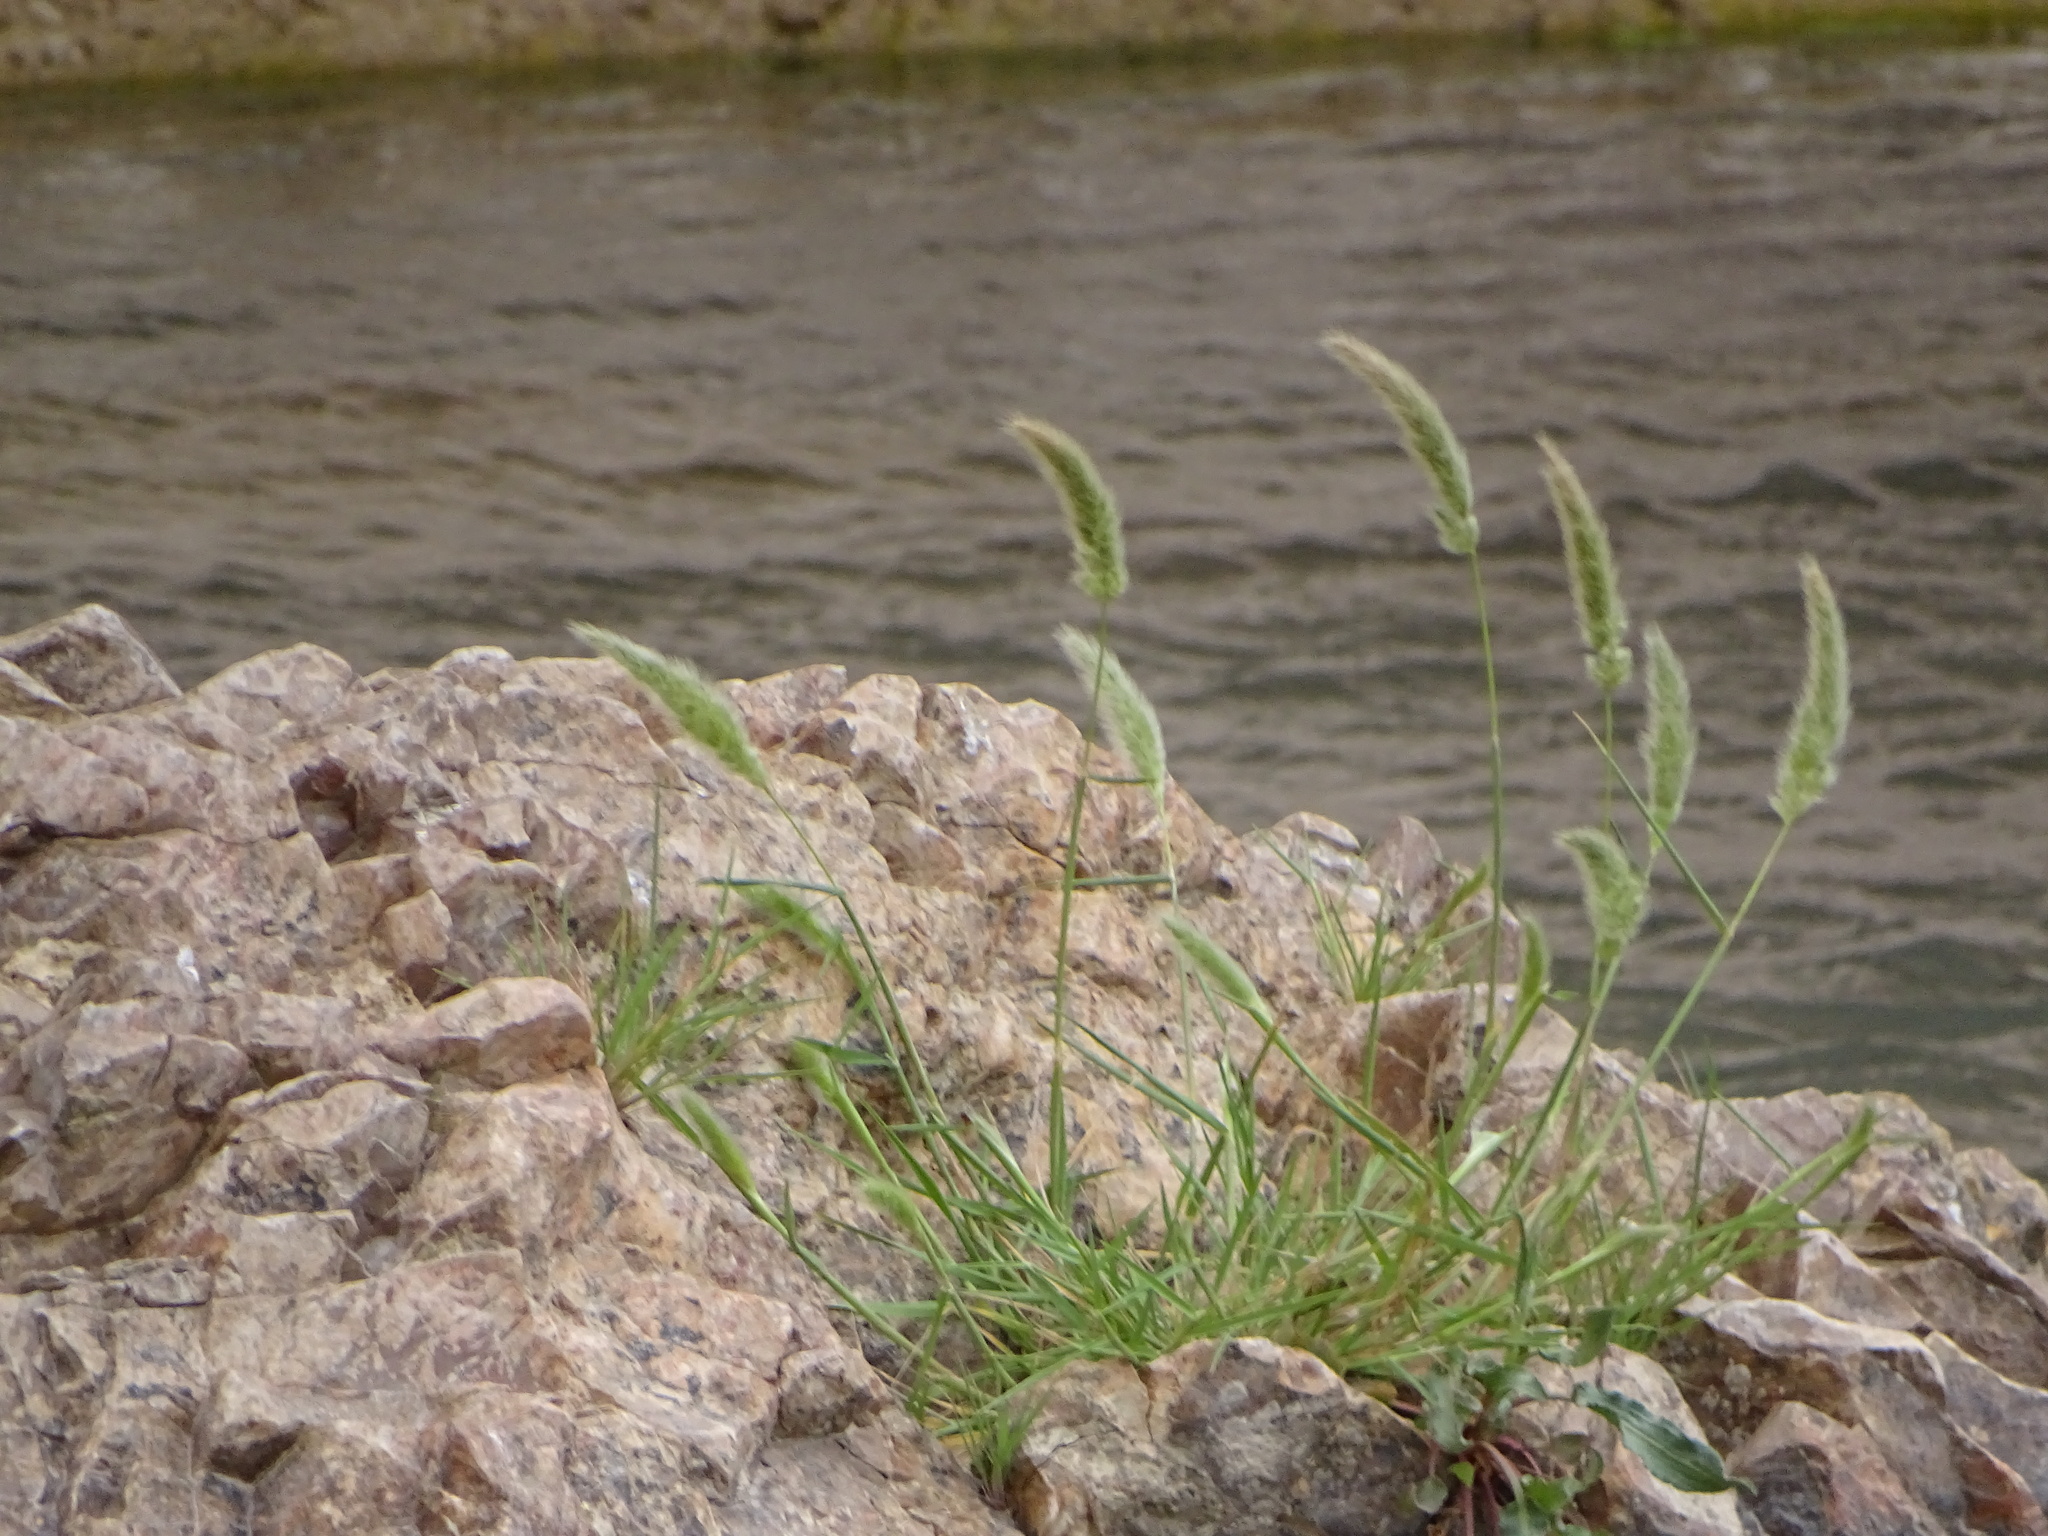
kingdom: Plantae
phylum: Tracheophyta
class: Liliopsida
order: Poales
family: Poaceae
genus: Polypogon
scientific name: Polypogon monspeliensis
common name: Annual rabbitsfoot grass
